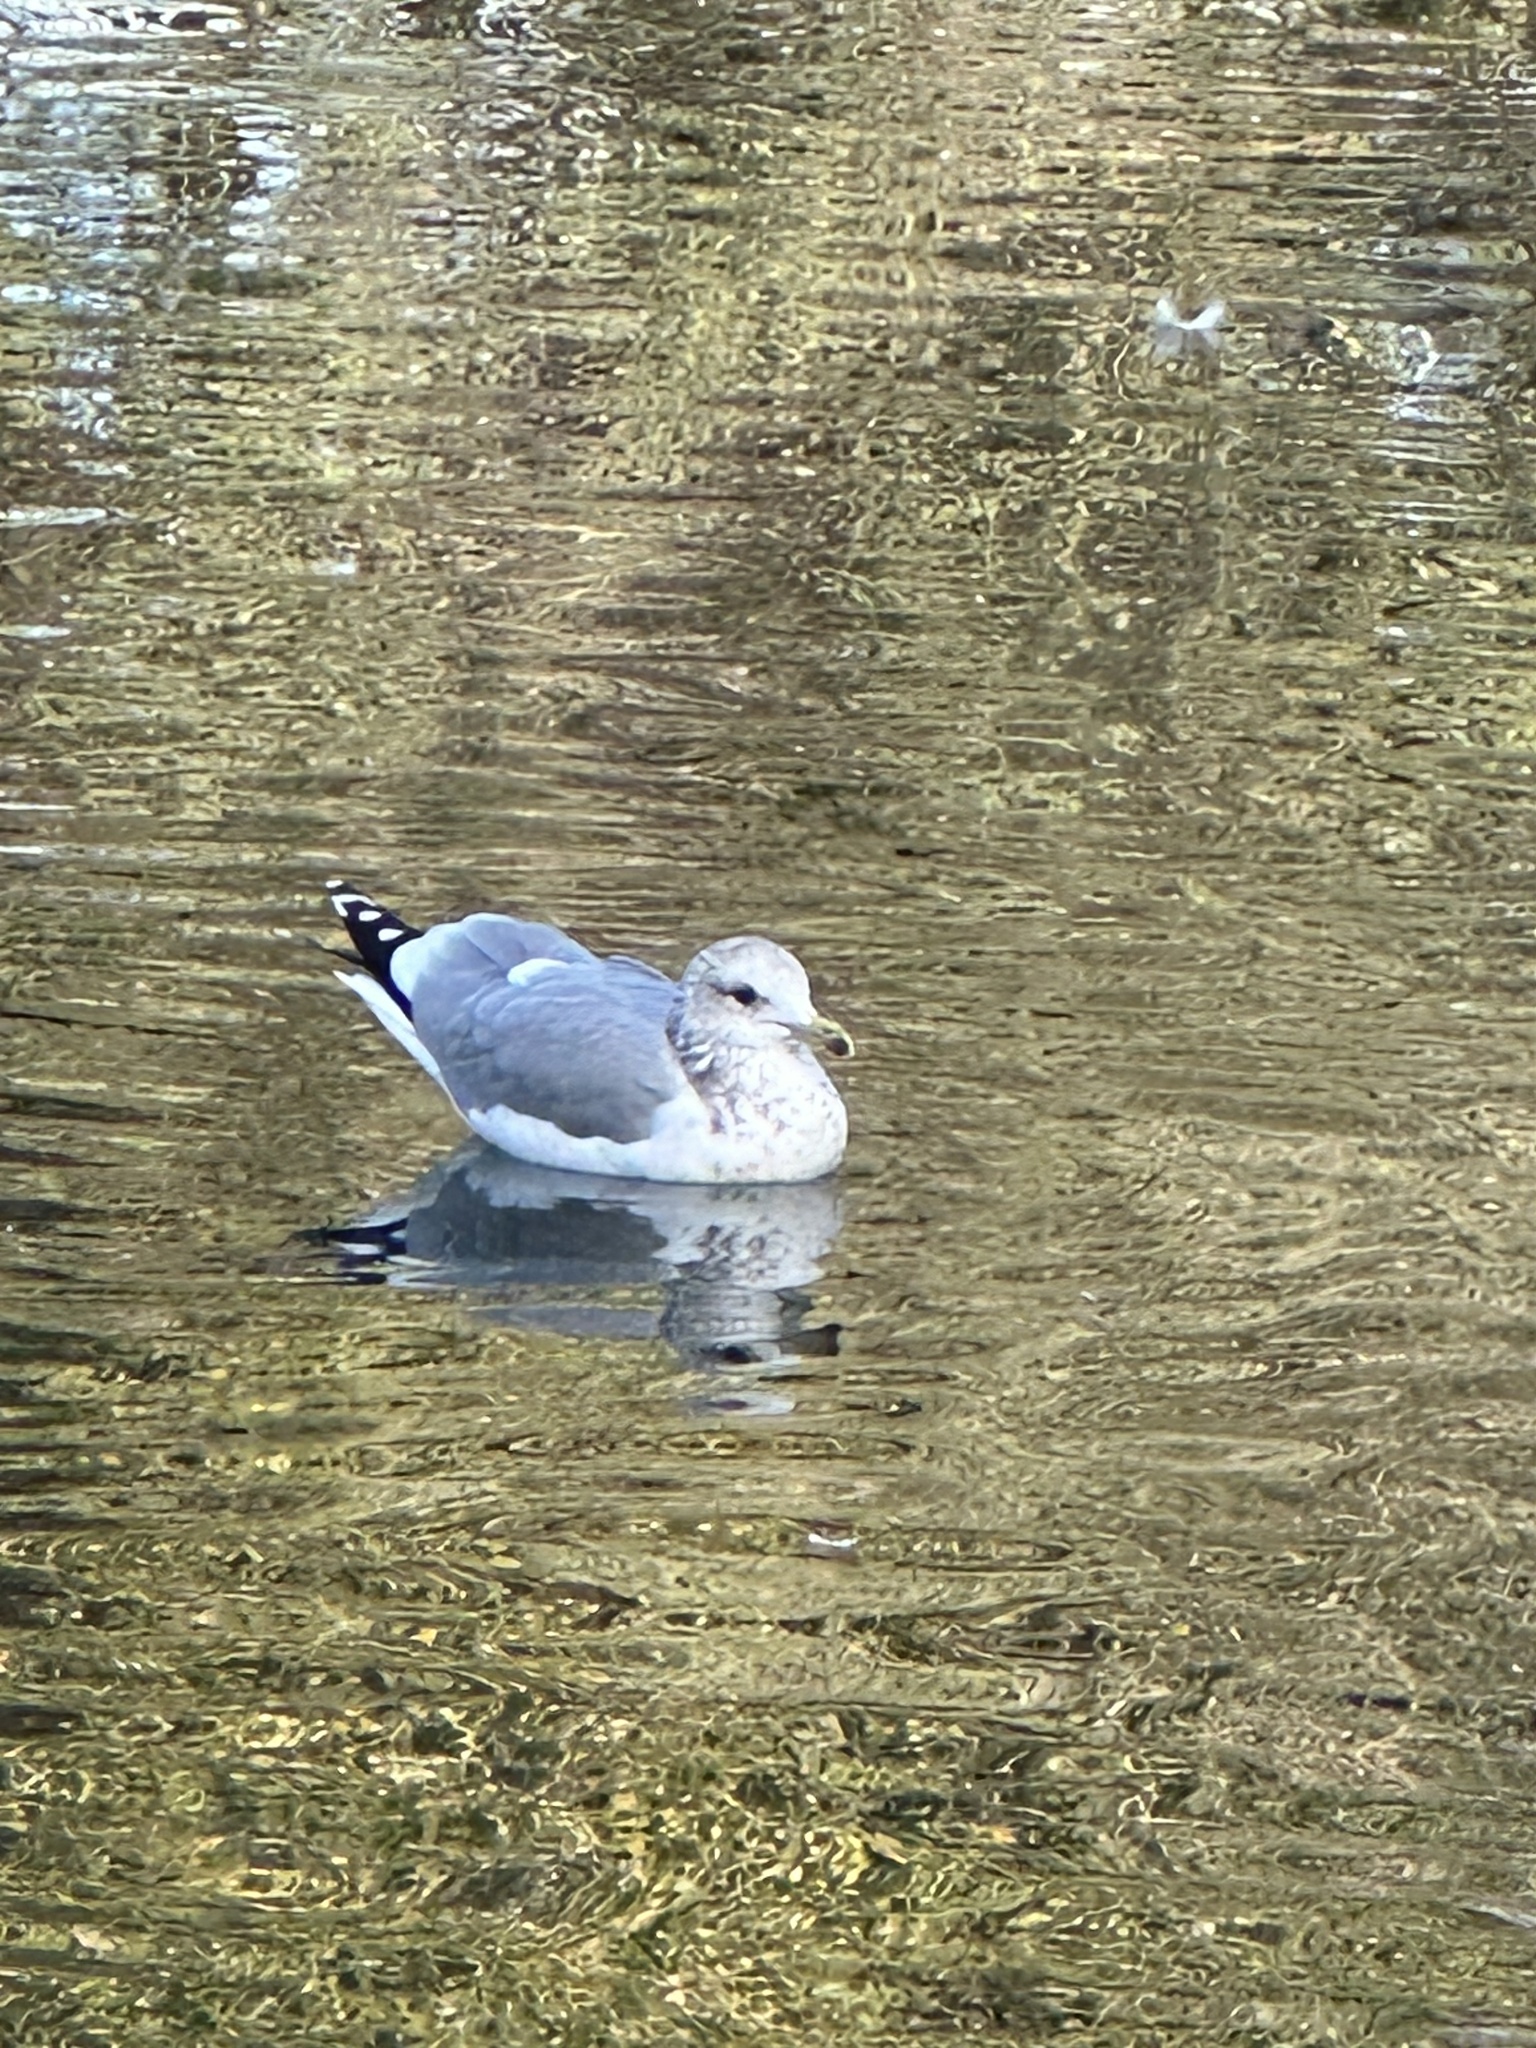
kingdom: Animalia
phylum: Chordata
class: Aves
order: Charadriiformes
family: Laridae
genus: Larus
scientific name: Larus californicus
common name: California gull
